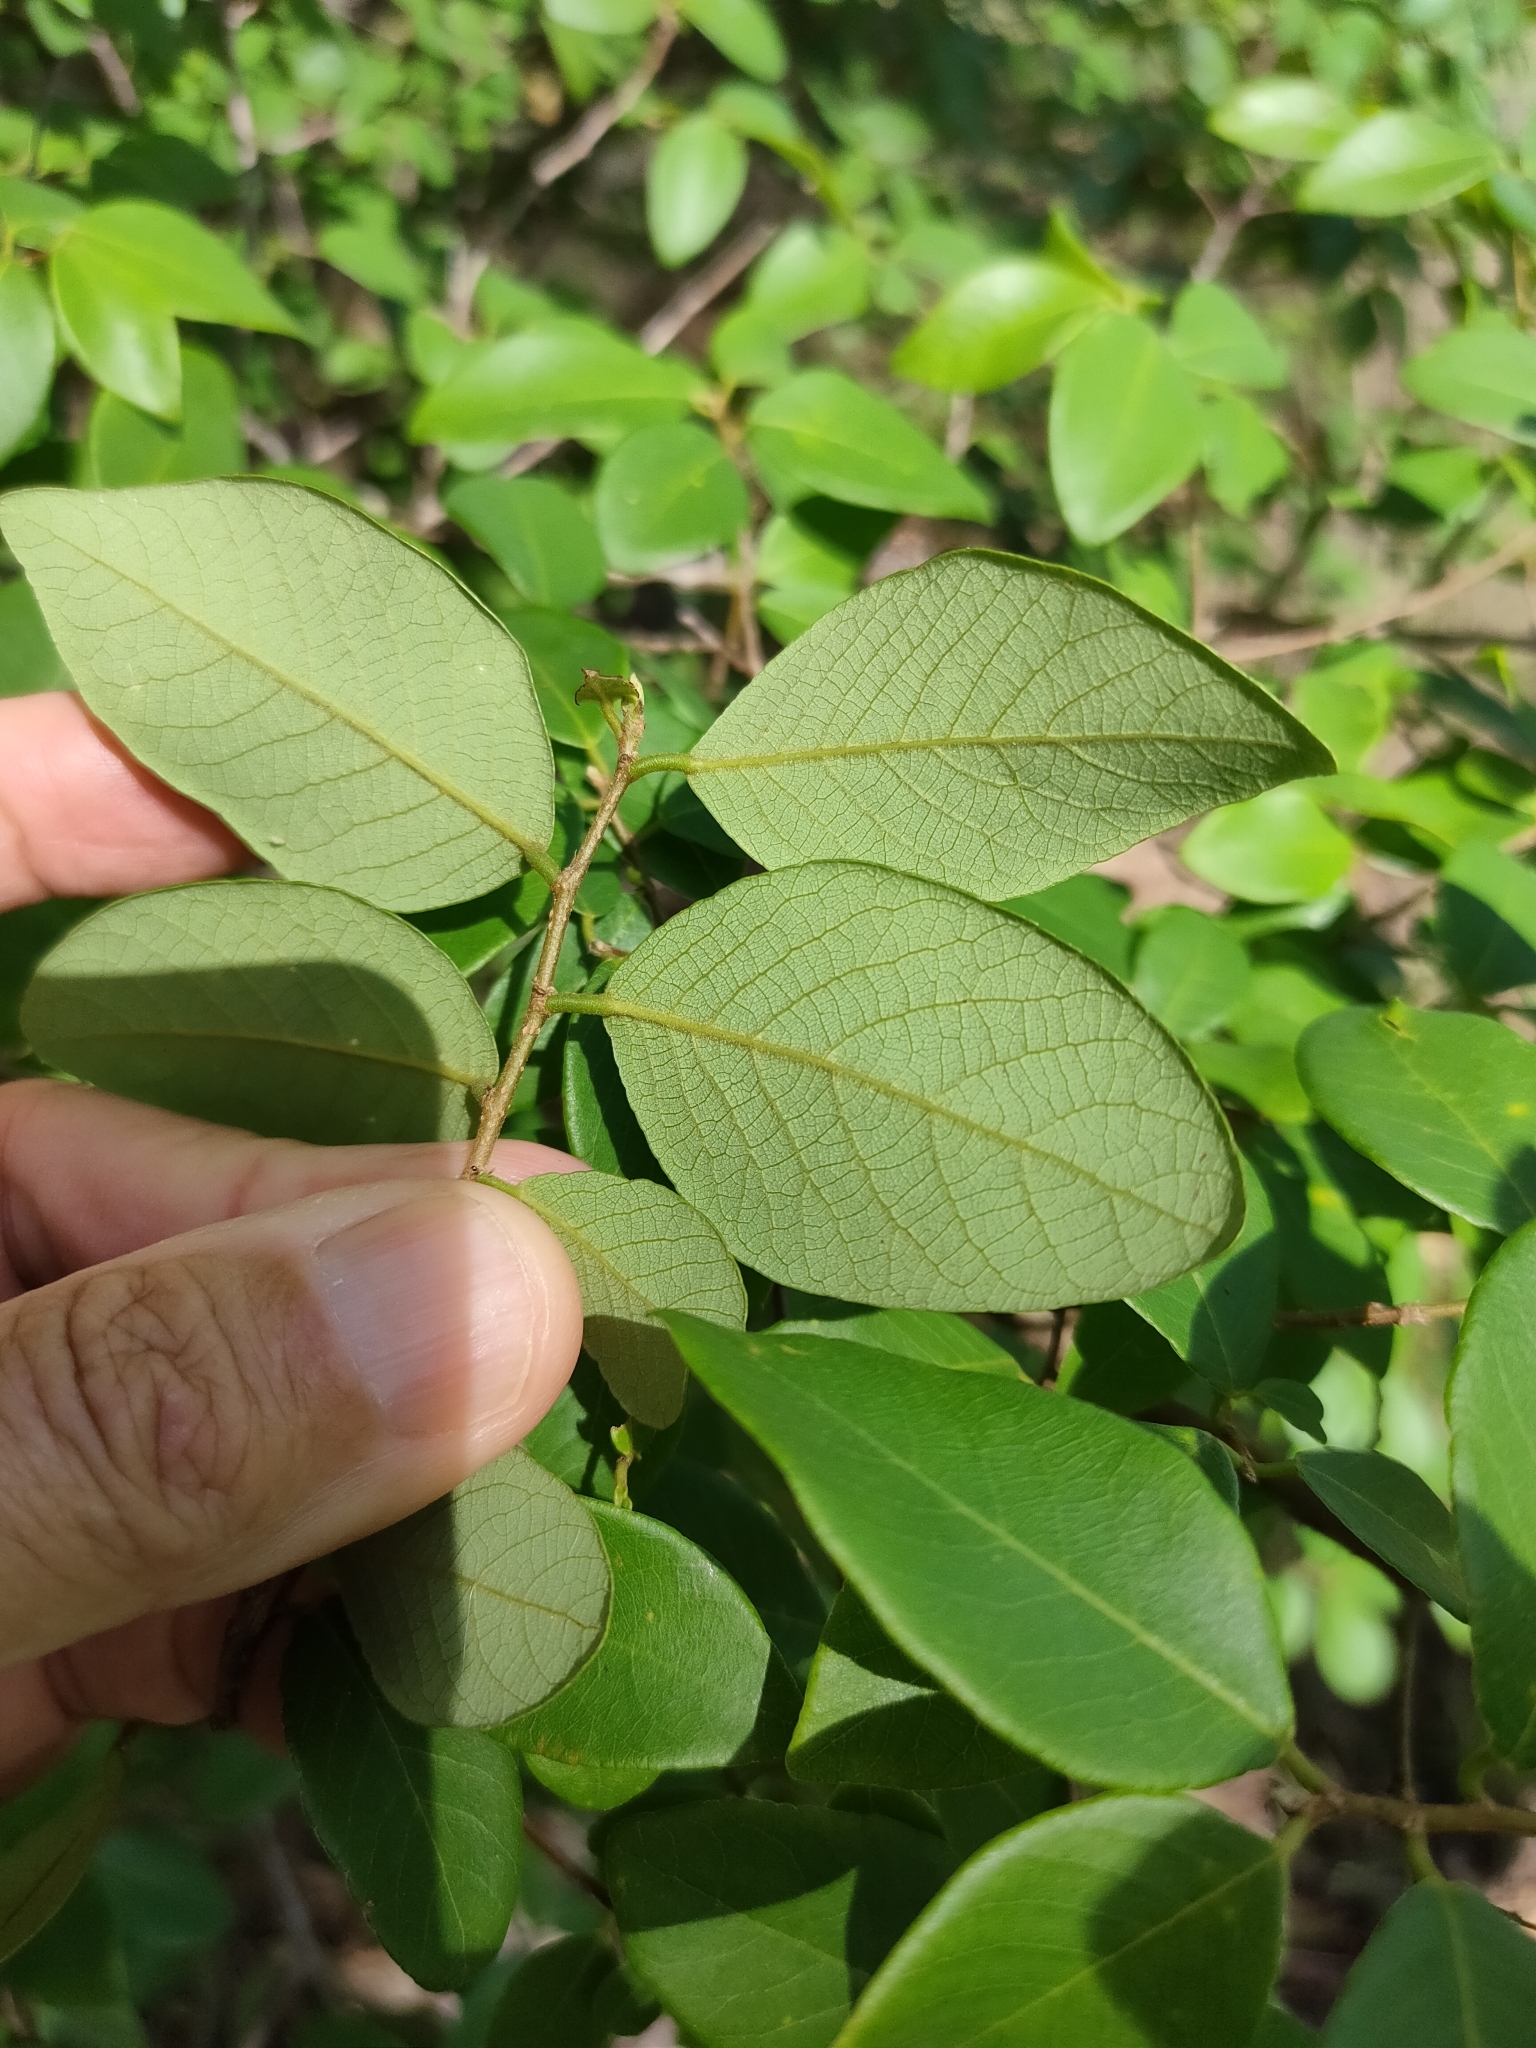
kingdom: Plantae
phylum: Tracheophyta
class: Magnoliopsida
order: Malpighiales
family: Phyllanthaceae
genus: Bridelia
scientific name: Bridelia leichhardtii
